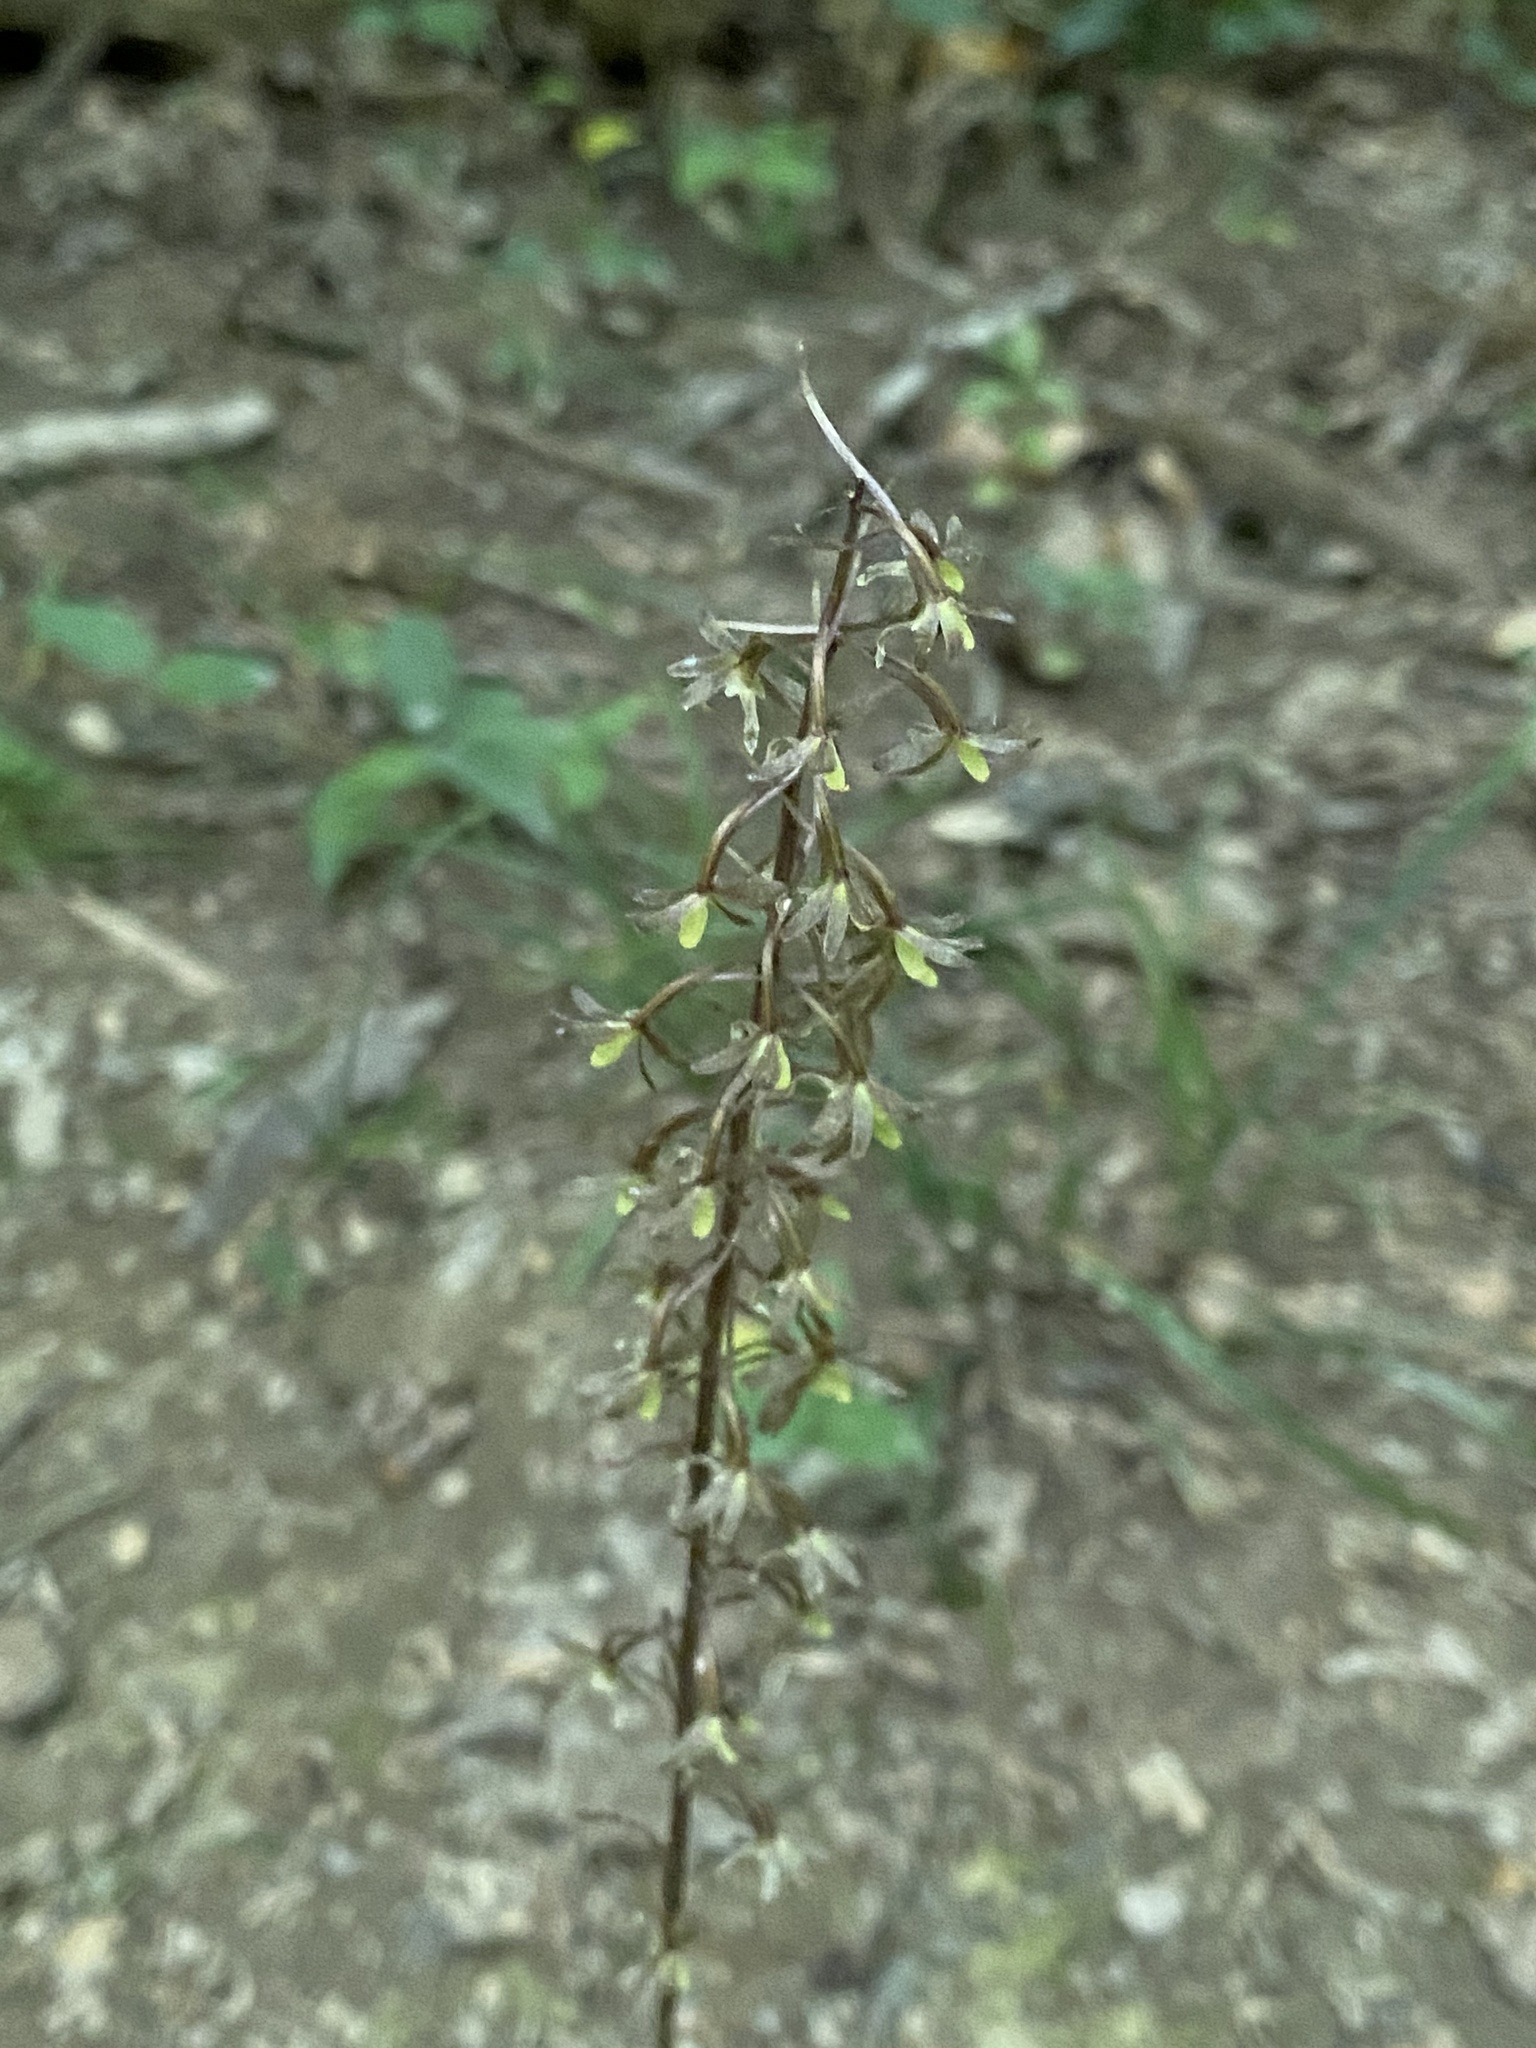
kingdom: Plantae
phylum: Tracheophyta
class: Liliopsida
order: Asparagales
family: Orchidaceae
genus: Tipularia
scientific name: Tipularia discolor
